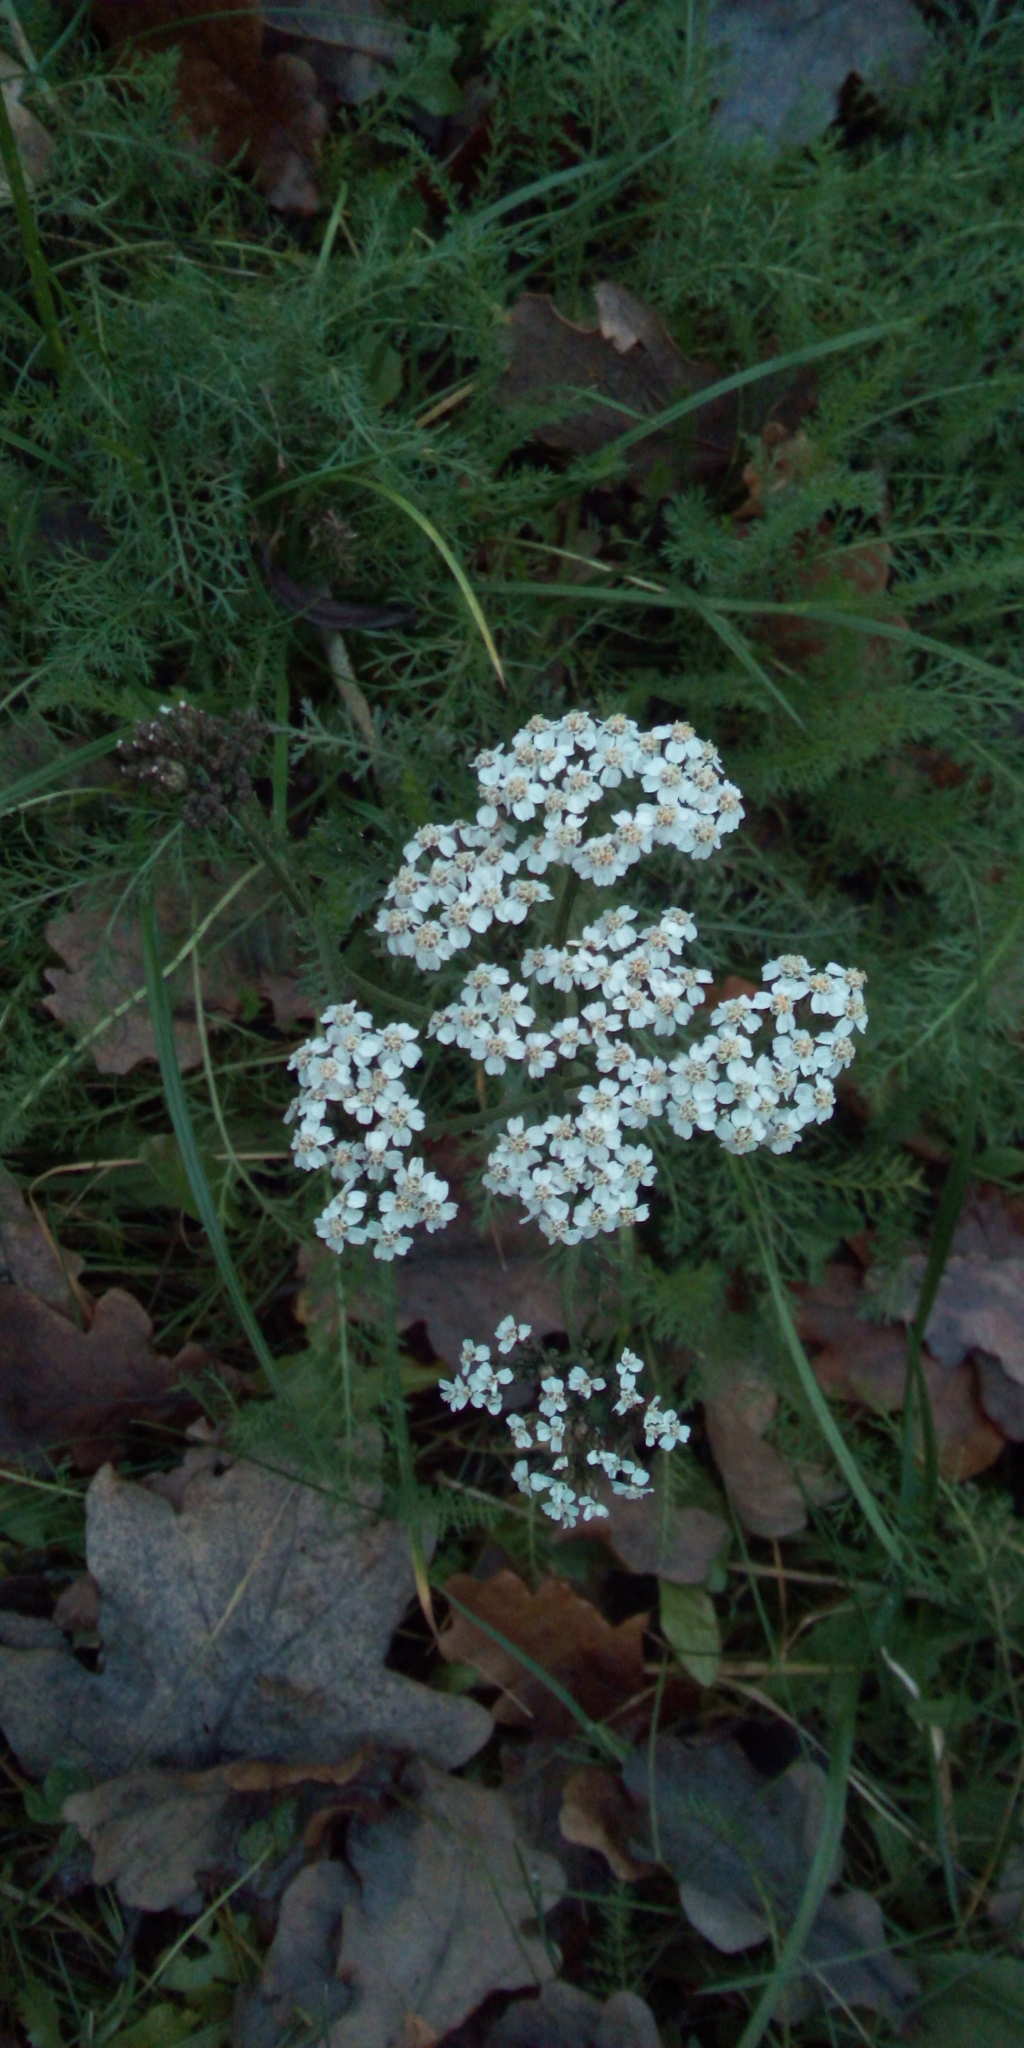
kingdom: Plantae
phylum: Tracheophyta
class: Magnoliopsida
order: Asterales
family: Asteraceae
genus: Achillea
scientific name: Achillea millefolium
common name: Yarrow
